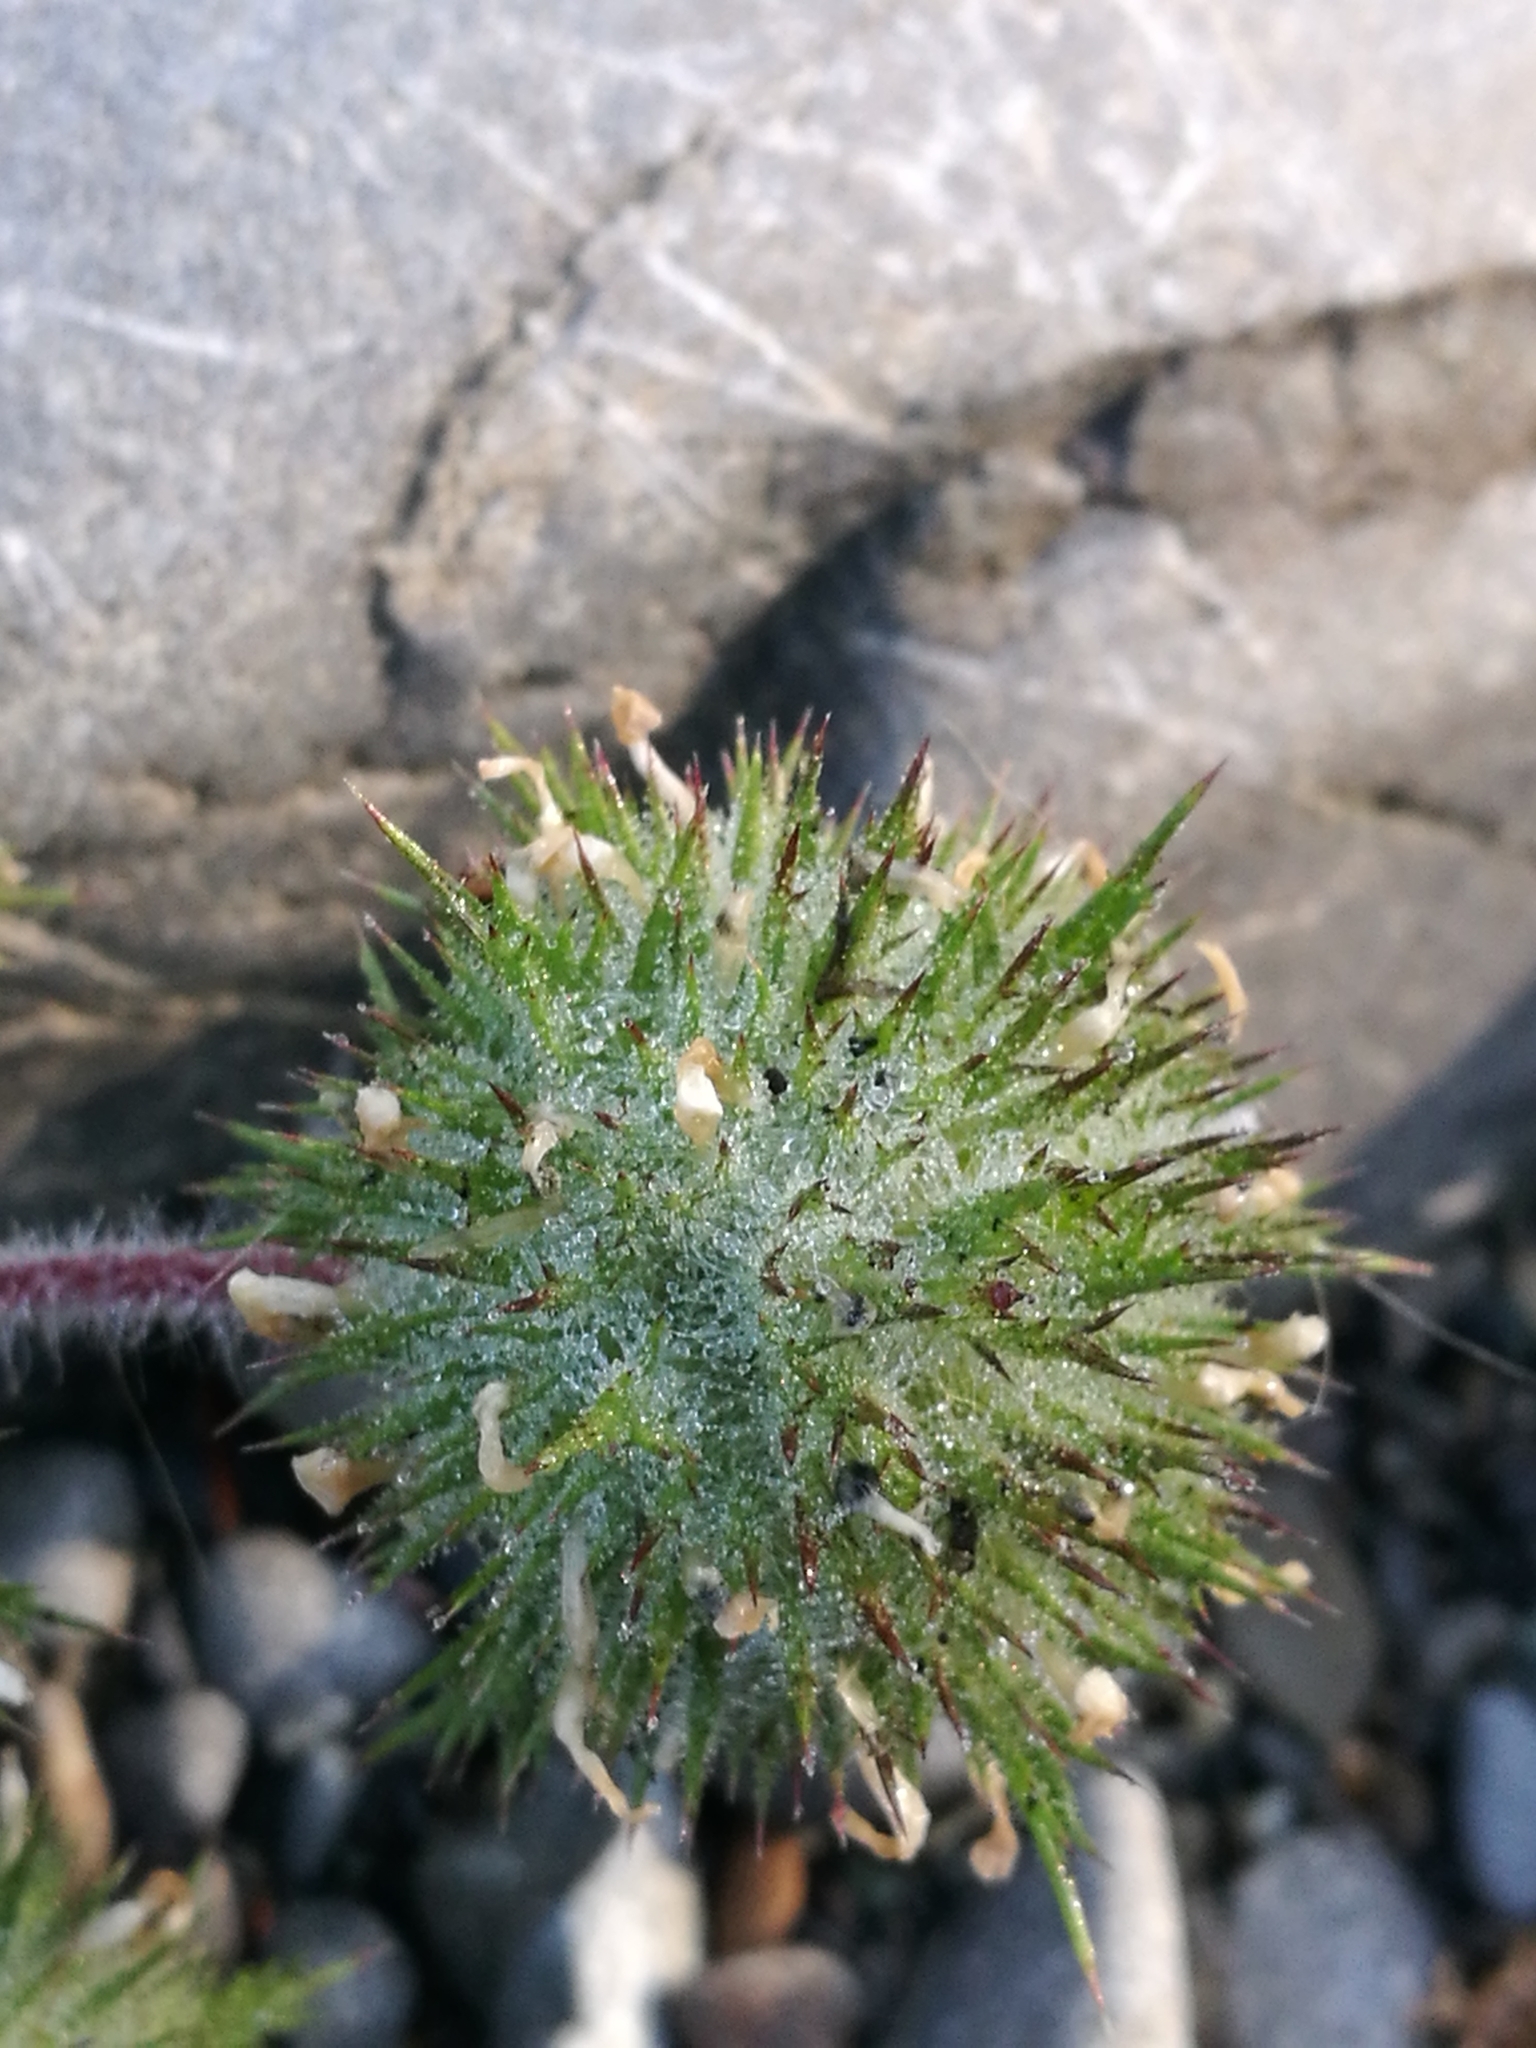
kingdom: Plantae
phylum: Tracheophyta
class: Magnoliopsida
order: Ericales
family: Polemoniaceae
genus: Navarretia
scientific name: Navarretia squarrosa
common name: Skunkweed
